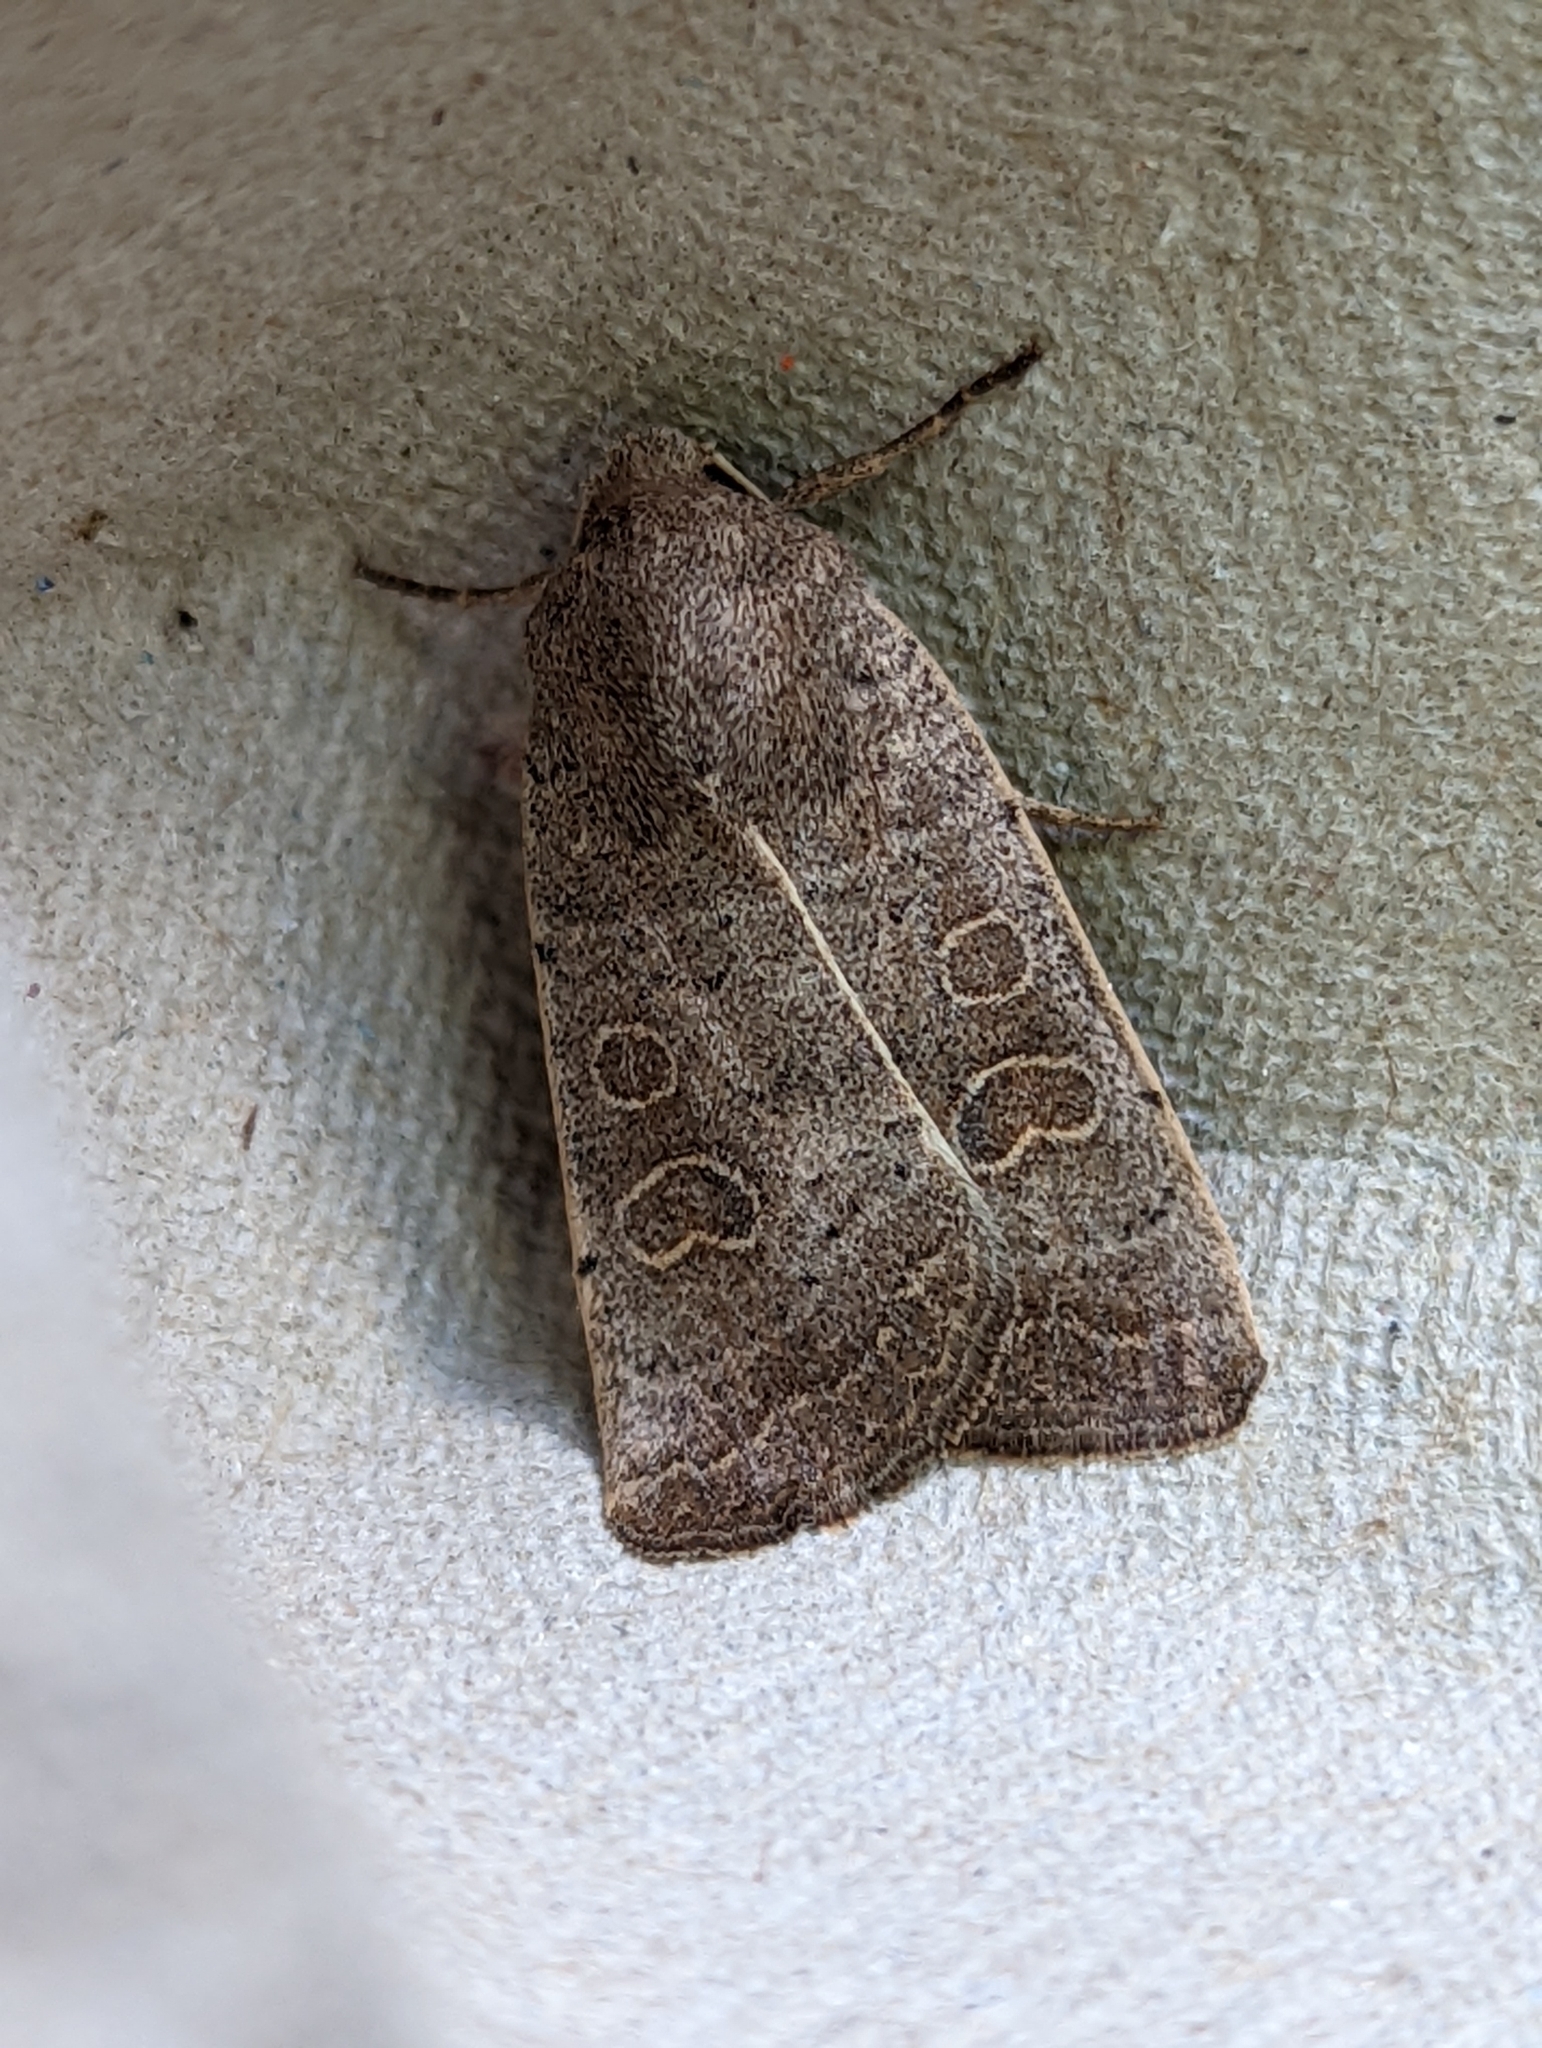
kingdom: Animalia
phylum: Arthropoda
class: Insecta
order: Lepidoptera
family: Noctuidae
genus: Hoplodrina
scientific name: Hoplodrina ambigua
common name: Vine's rustic
